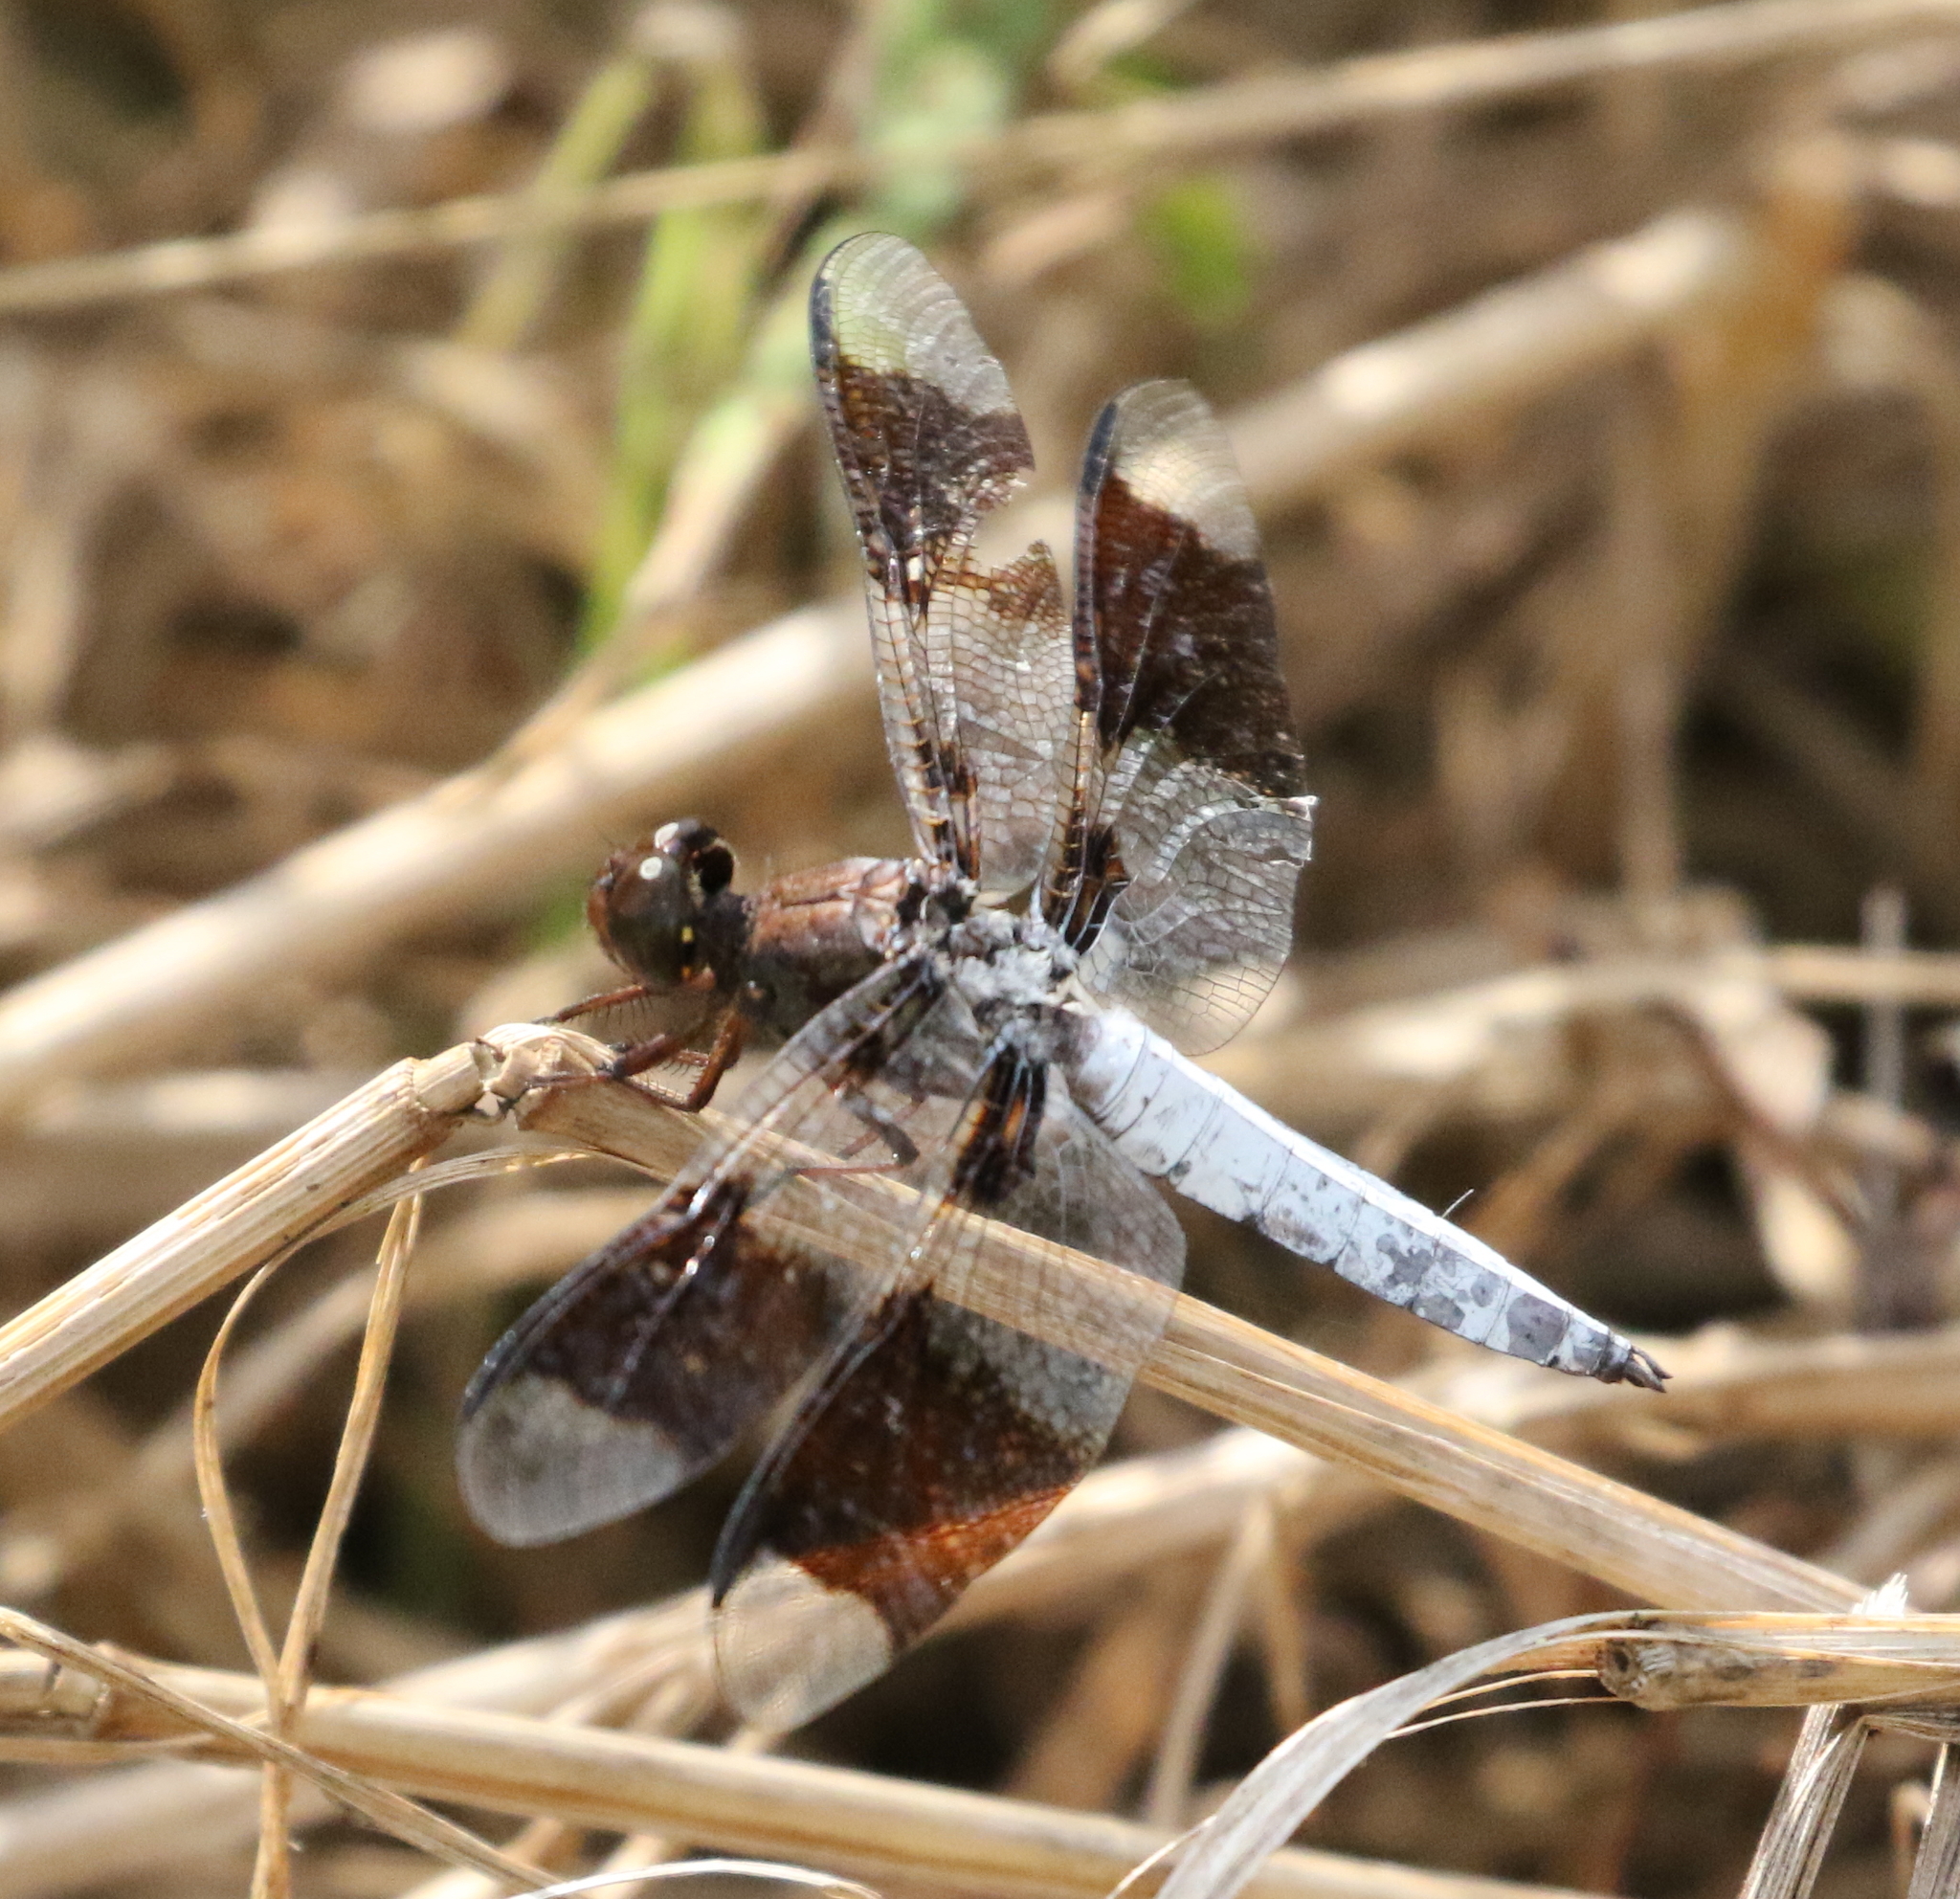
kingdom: Animalia
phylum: Arthropoda
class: Insecta
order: Odonata
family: Libellulidae
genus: Plathemis
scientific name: Plathemis lydia
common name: Common whitetail
